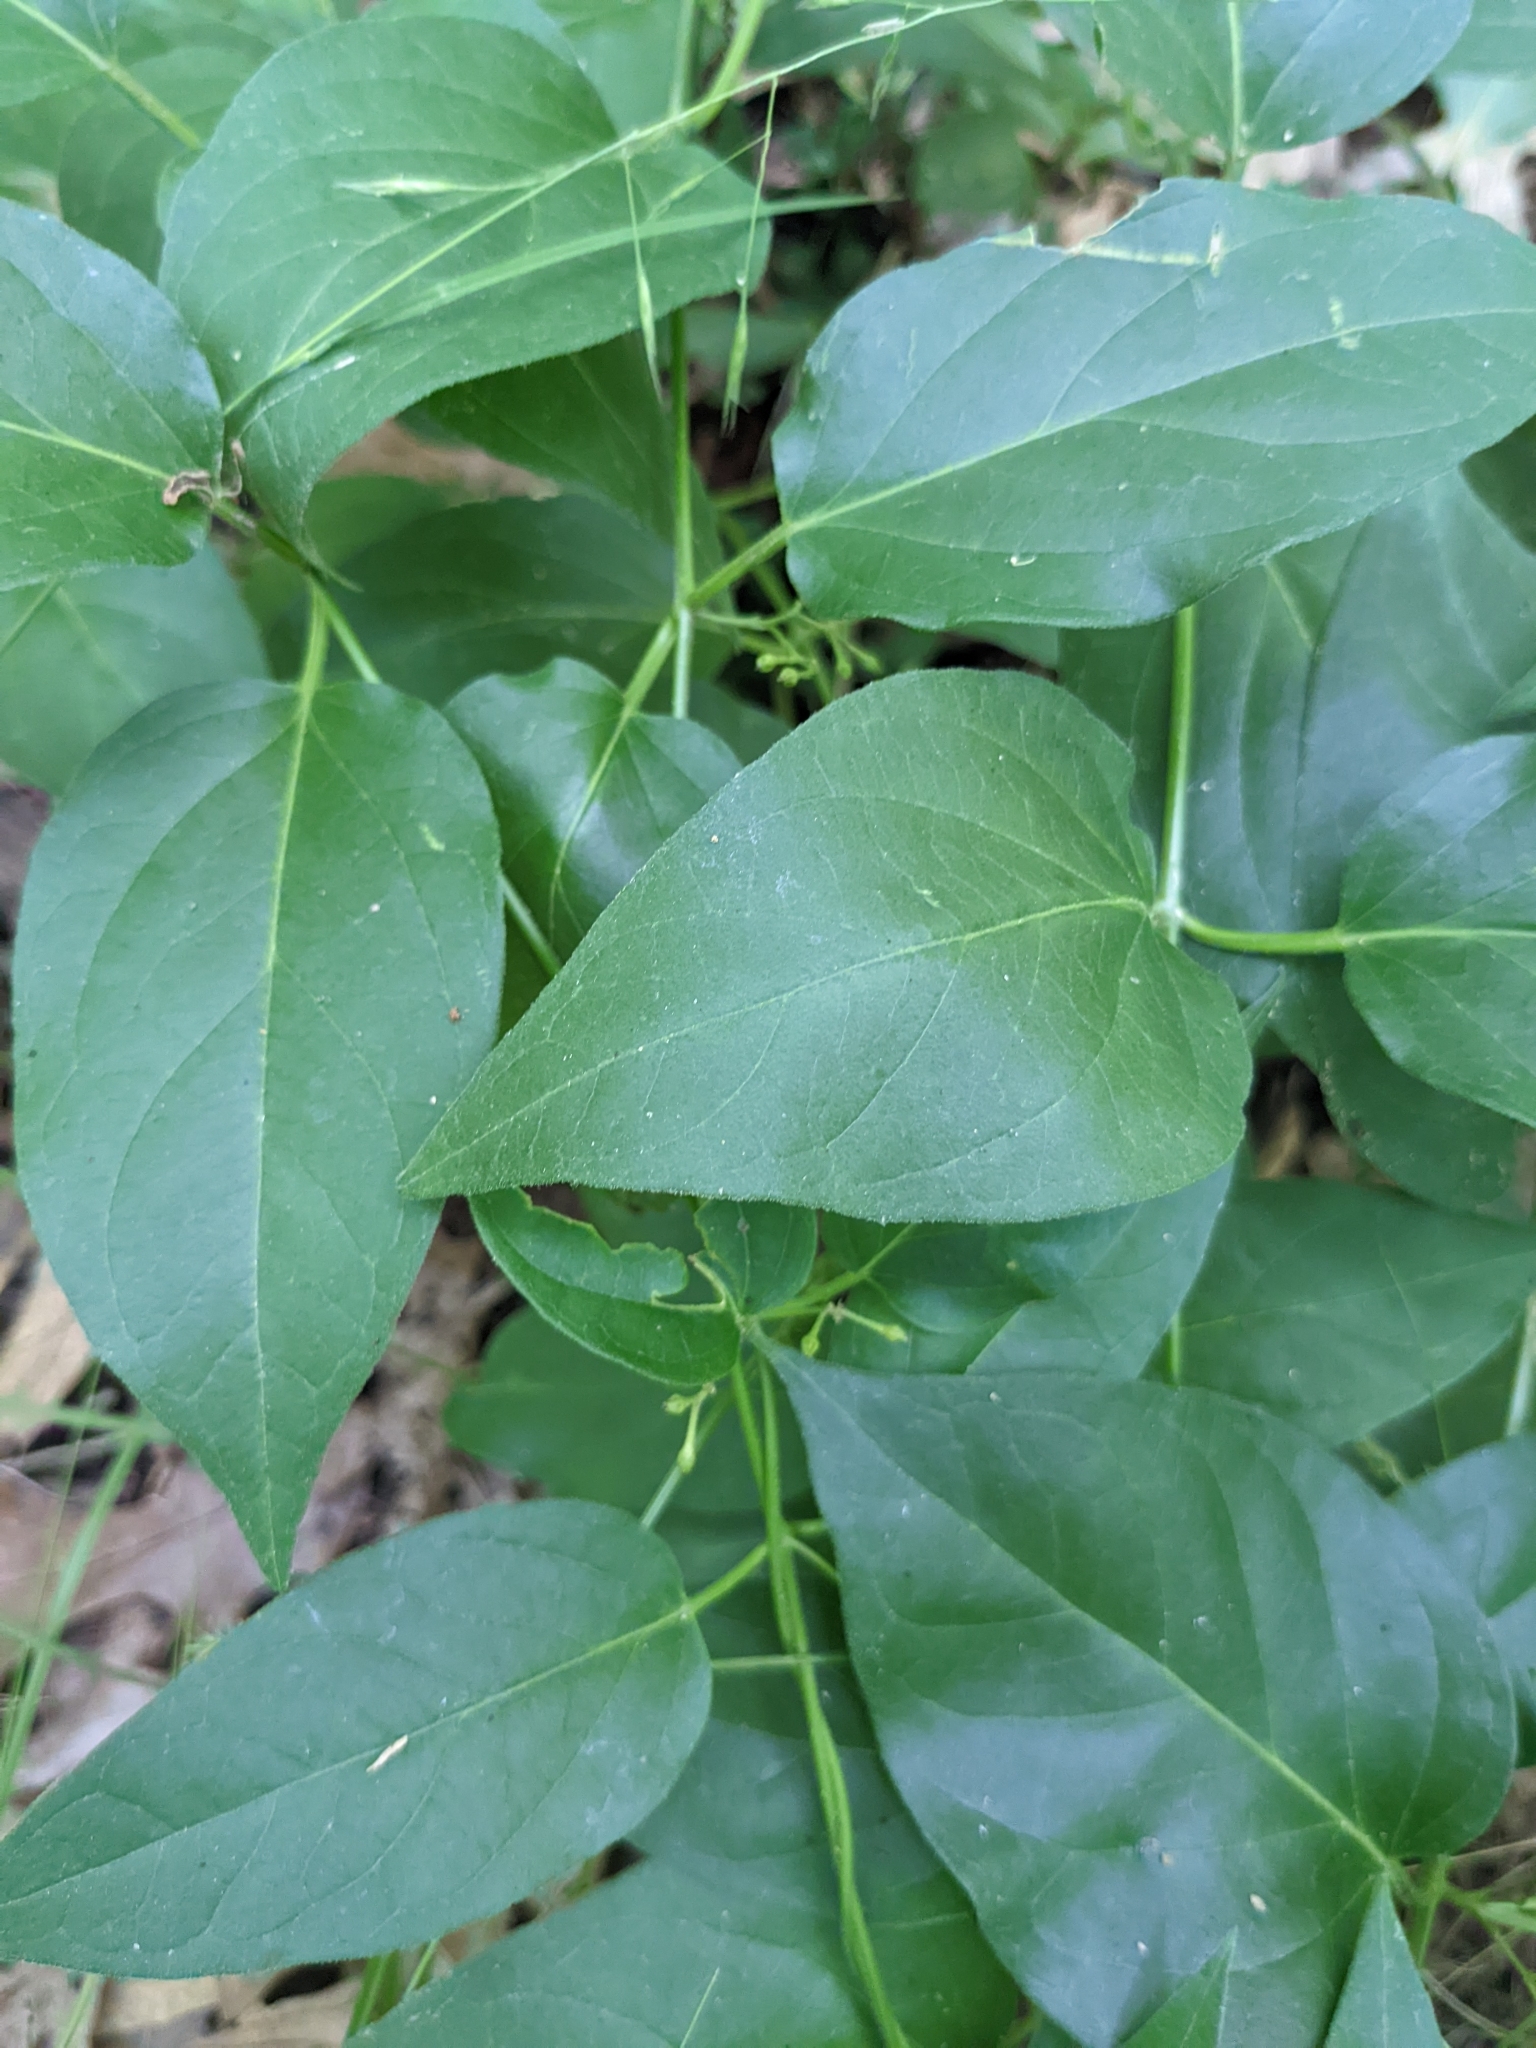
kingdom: Plantae
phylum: Tracheophyta
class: Magnoliopsida
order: Gentianales
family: Apocynaceae
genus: Vincetoxicum
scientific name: Vincetoxicum nigrum
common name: Black swallow-wort
